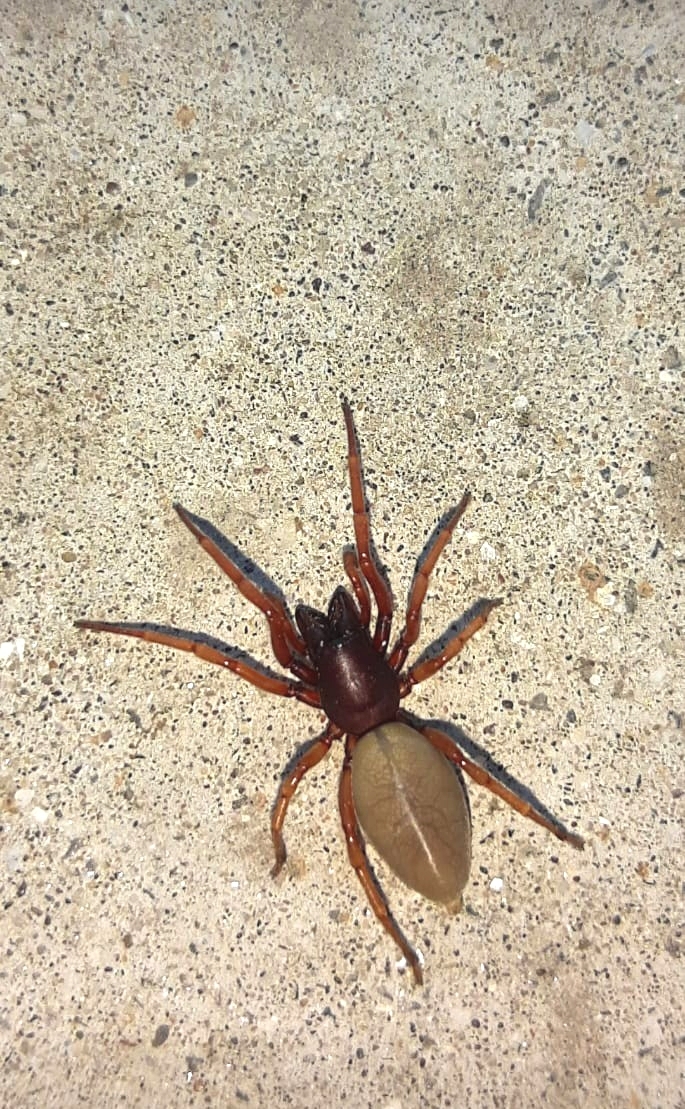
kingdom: Animalia
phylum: Arthropoda
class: Arachnida
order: Araneae
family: Dysderidae
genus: Dysdera
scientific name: Dysdera crocata
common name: Woodlouse spider
